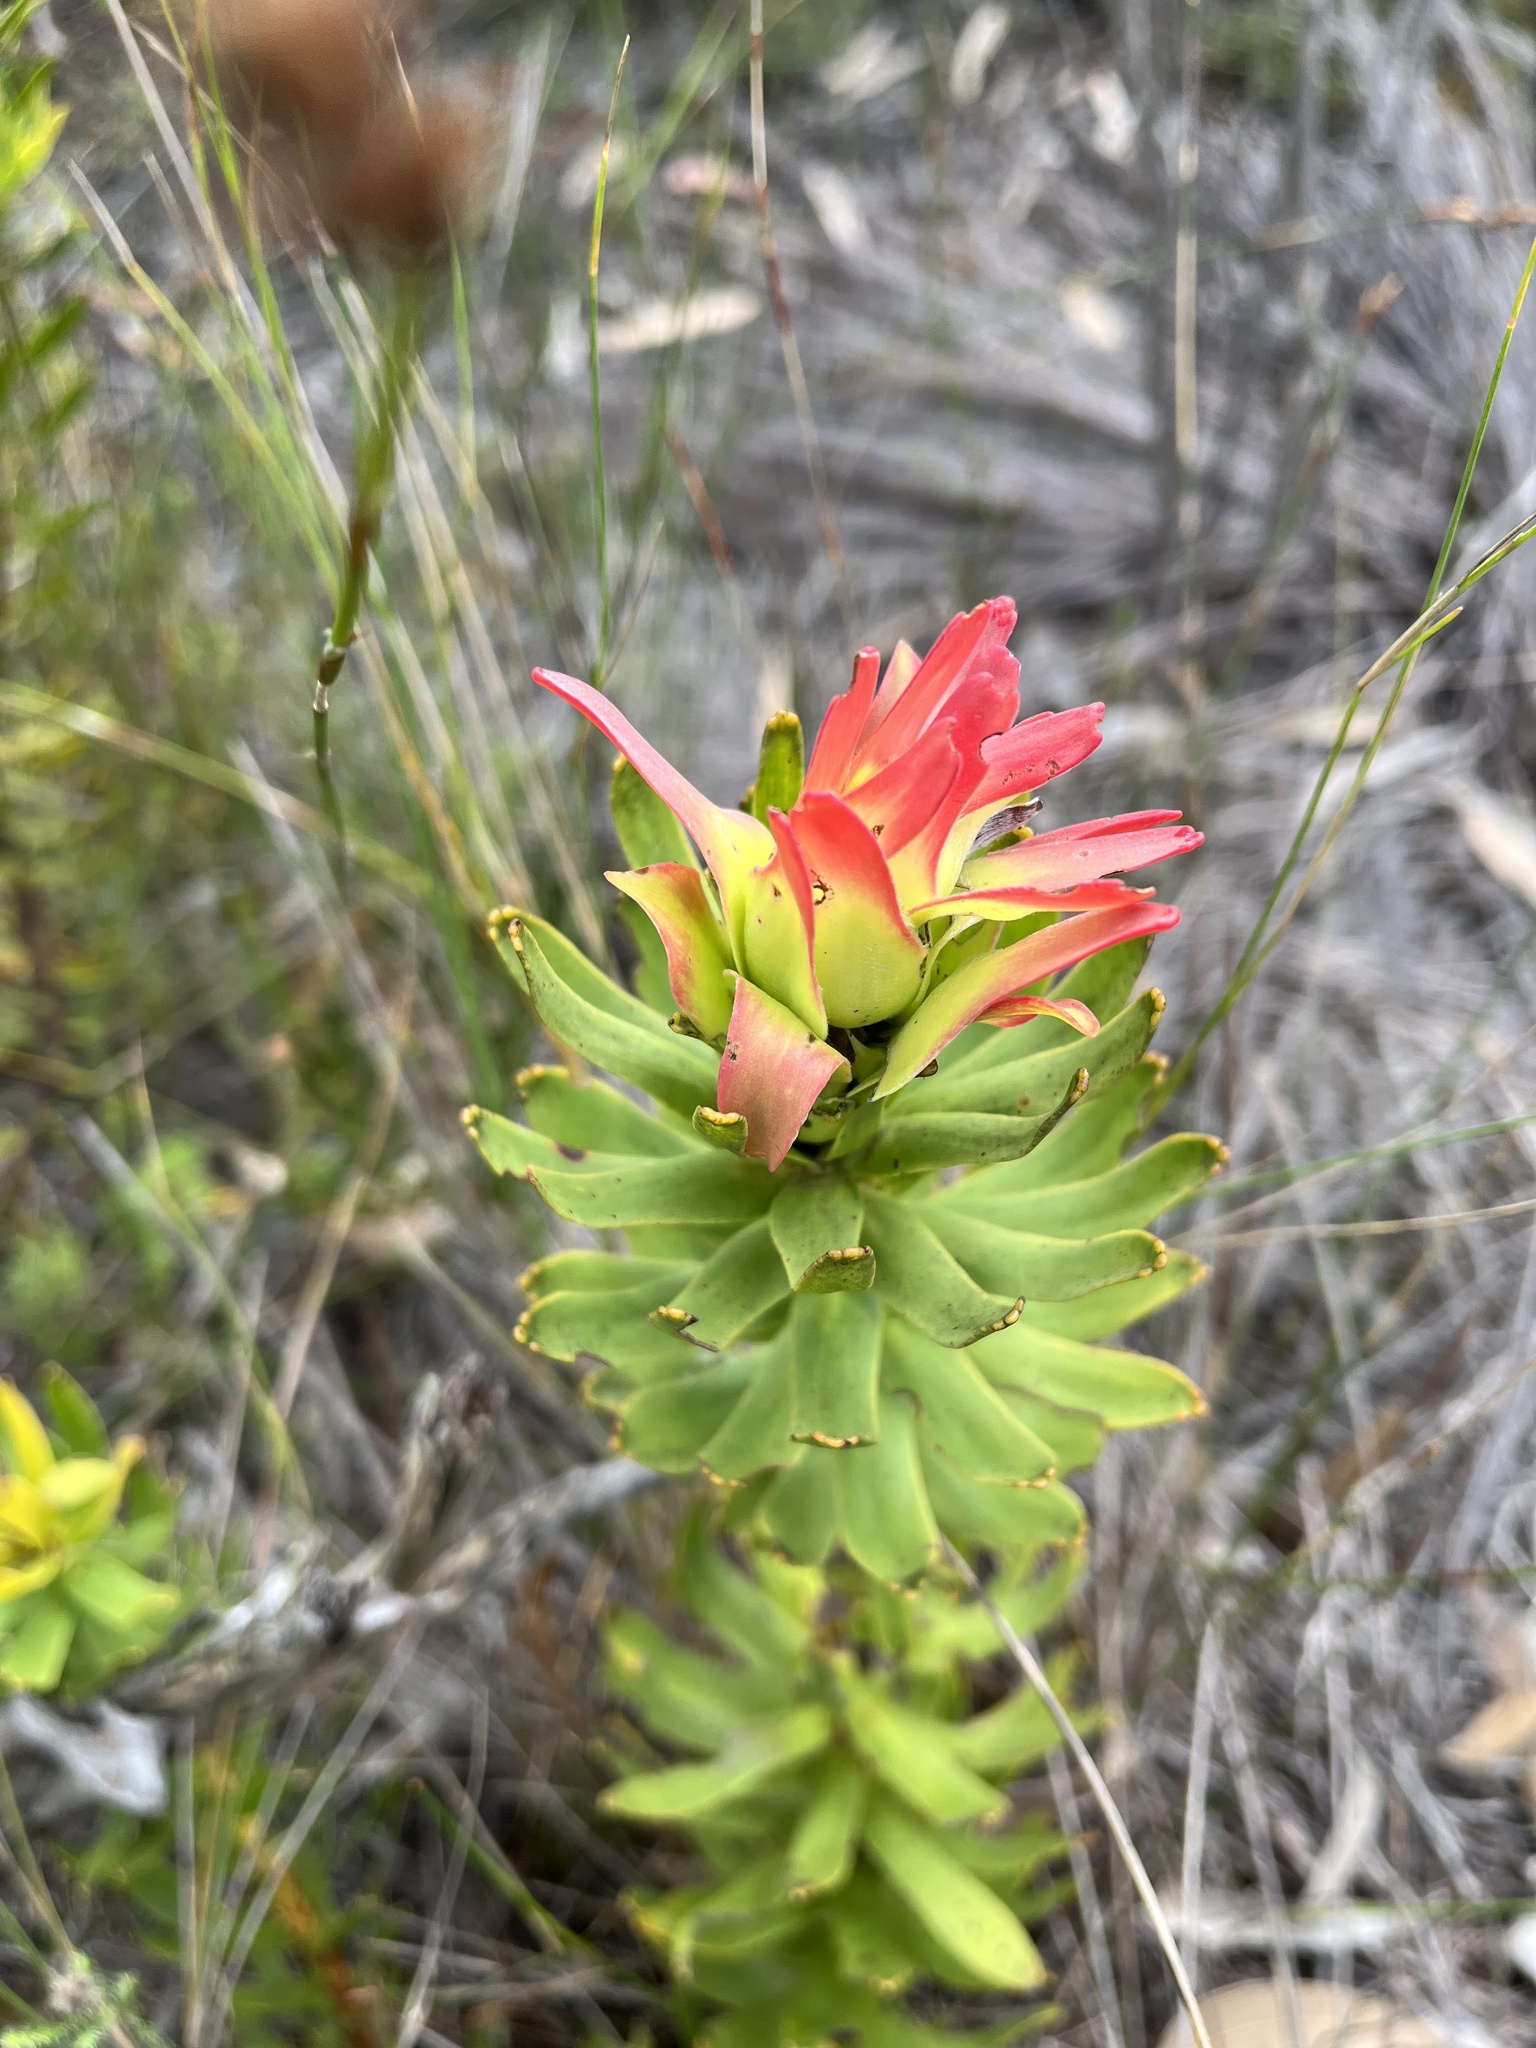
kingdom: Plantae
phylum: Tracheophyta
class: Magnoliopsida
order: Proteales
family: Proteaceae
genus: Mimetes
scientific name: Mimetes cucullatus
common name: Common pagoda
